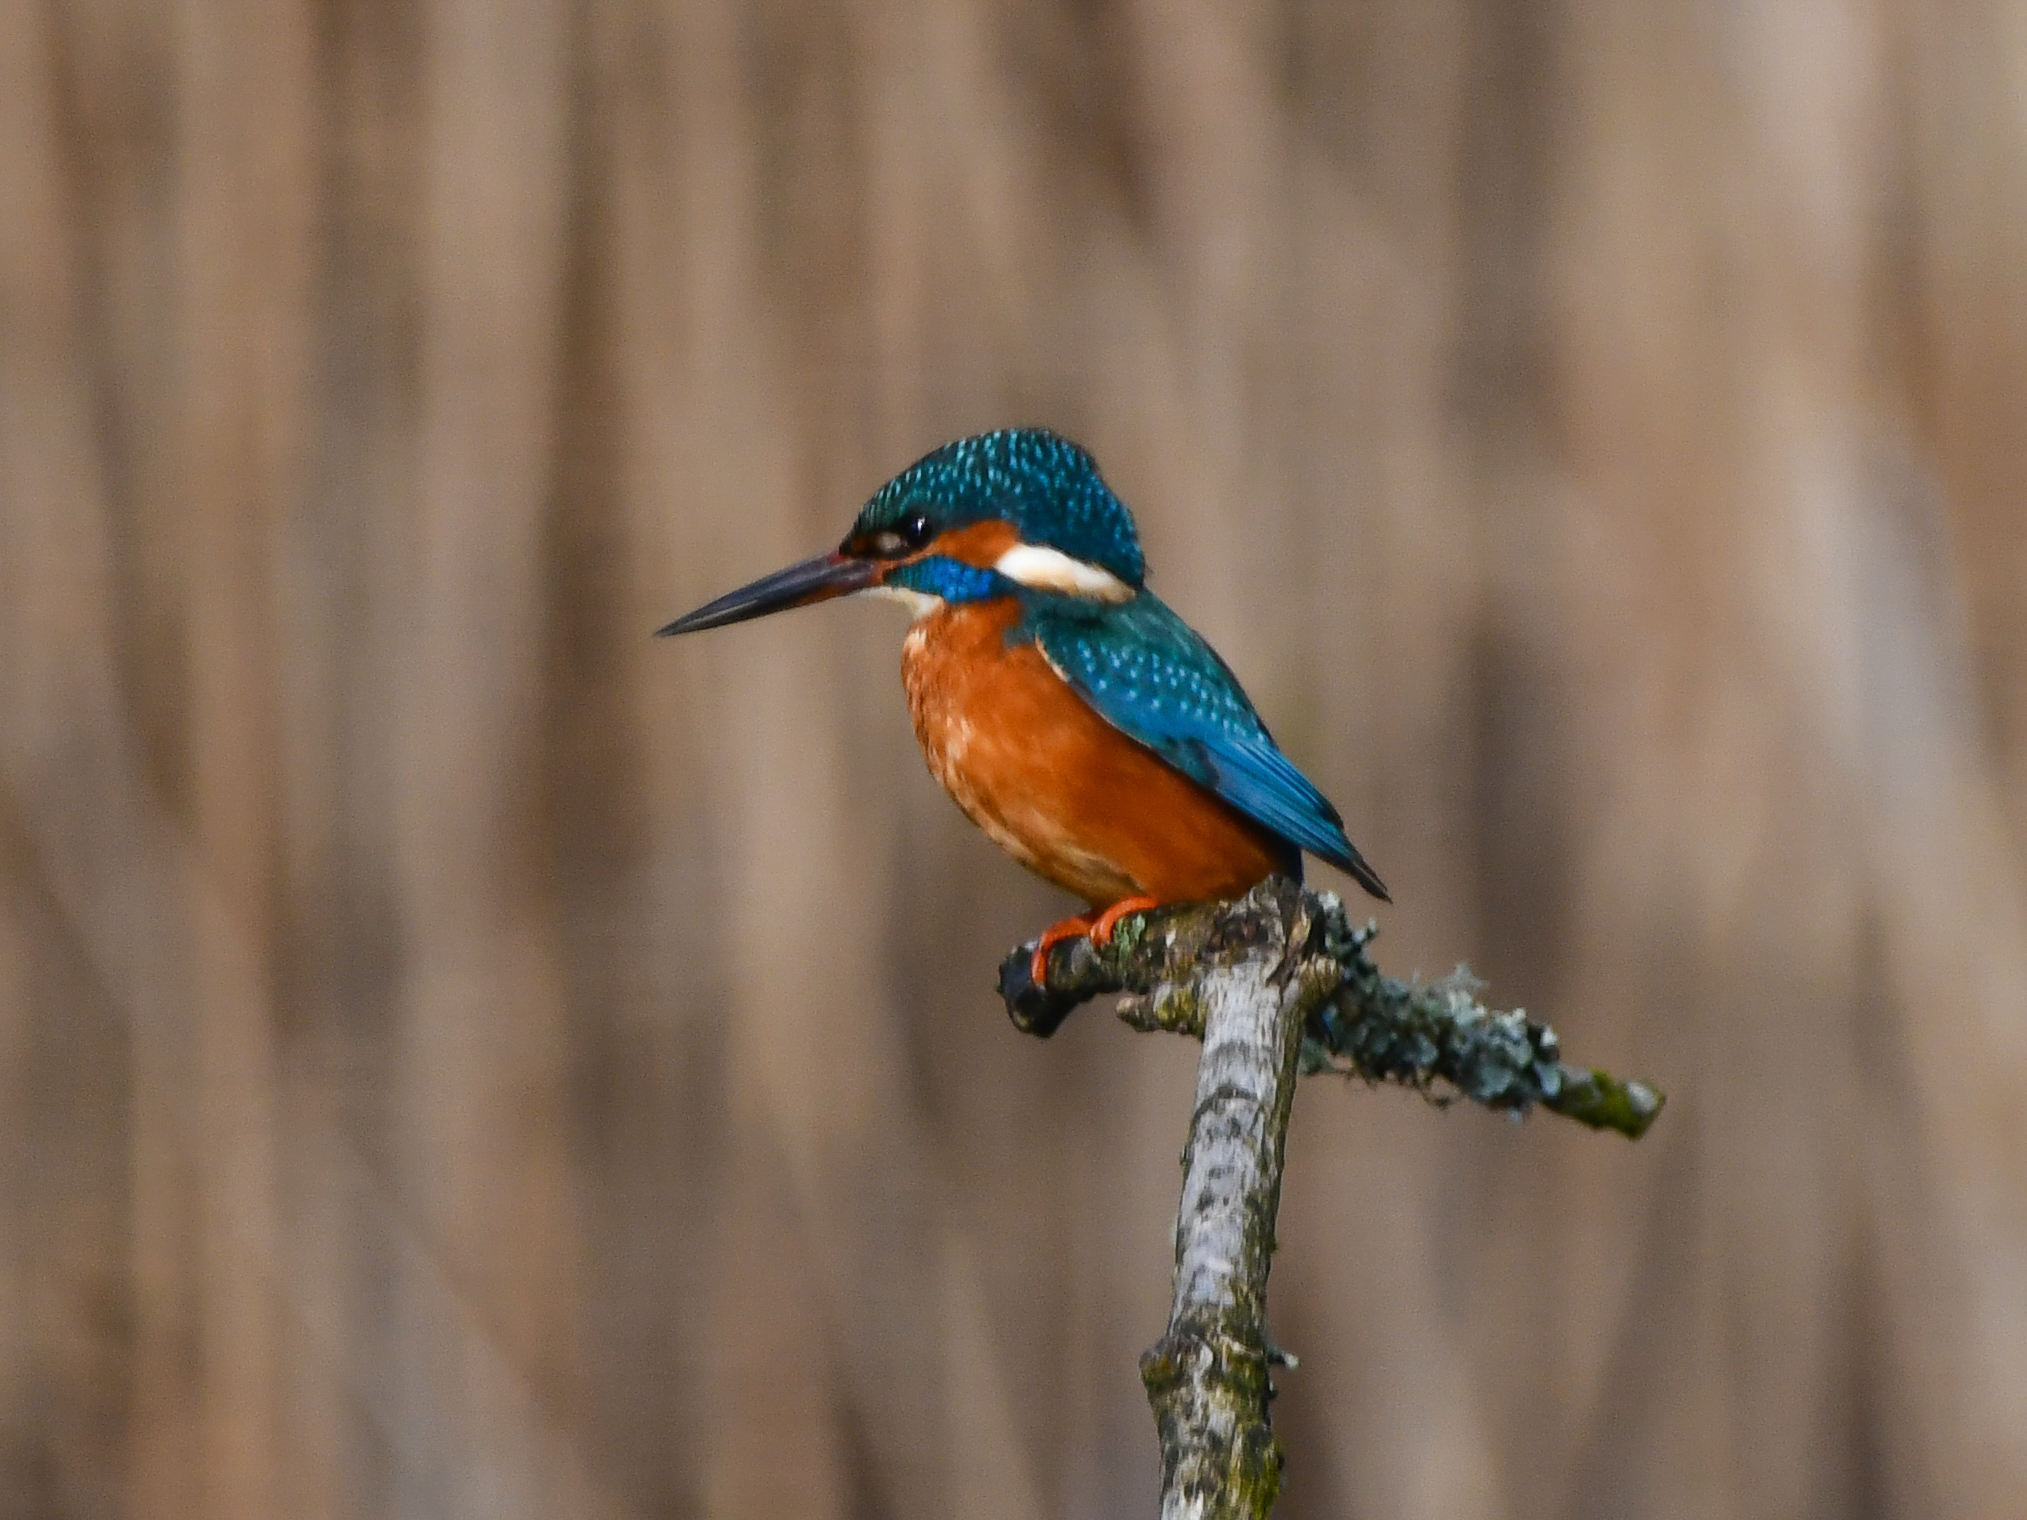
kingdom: Animalia
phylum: Chordata
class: Aves
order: Coraciiformes
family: Alcedinidae
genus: Alcedo
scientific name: Alcedo atthis
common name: Common kingfisher
